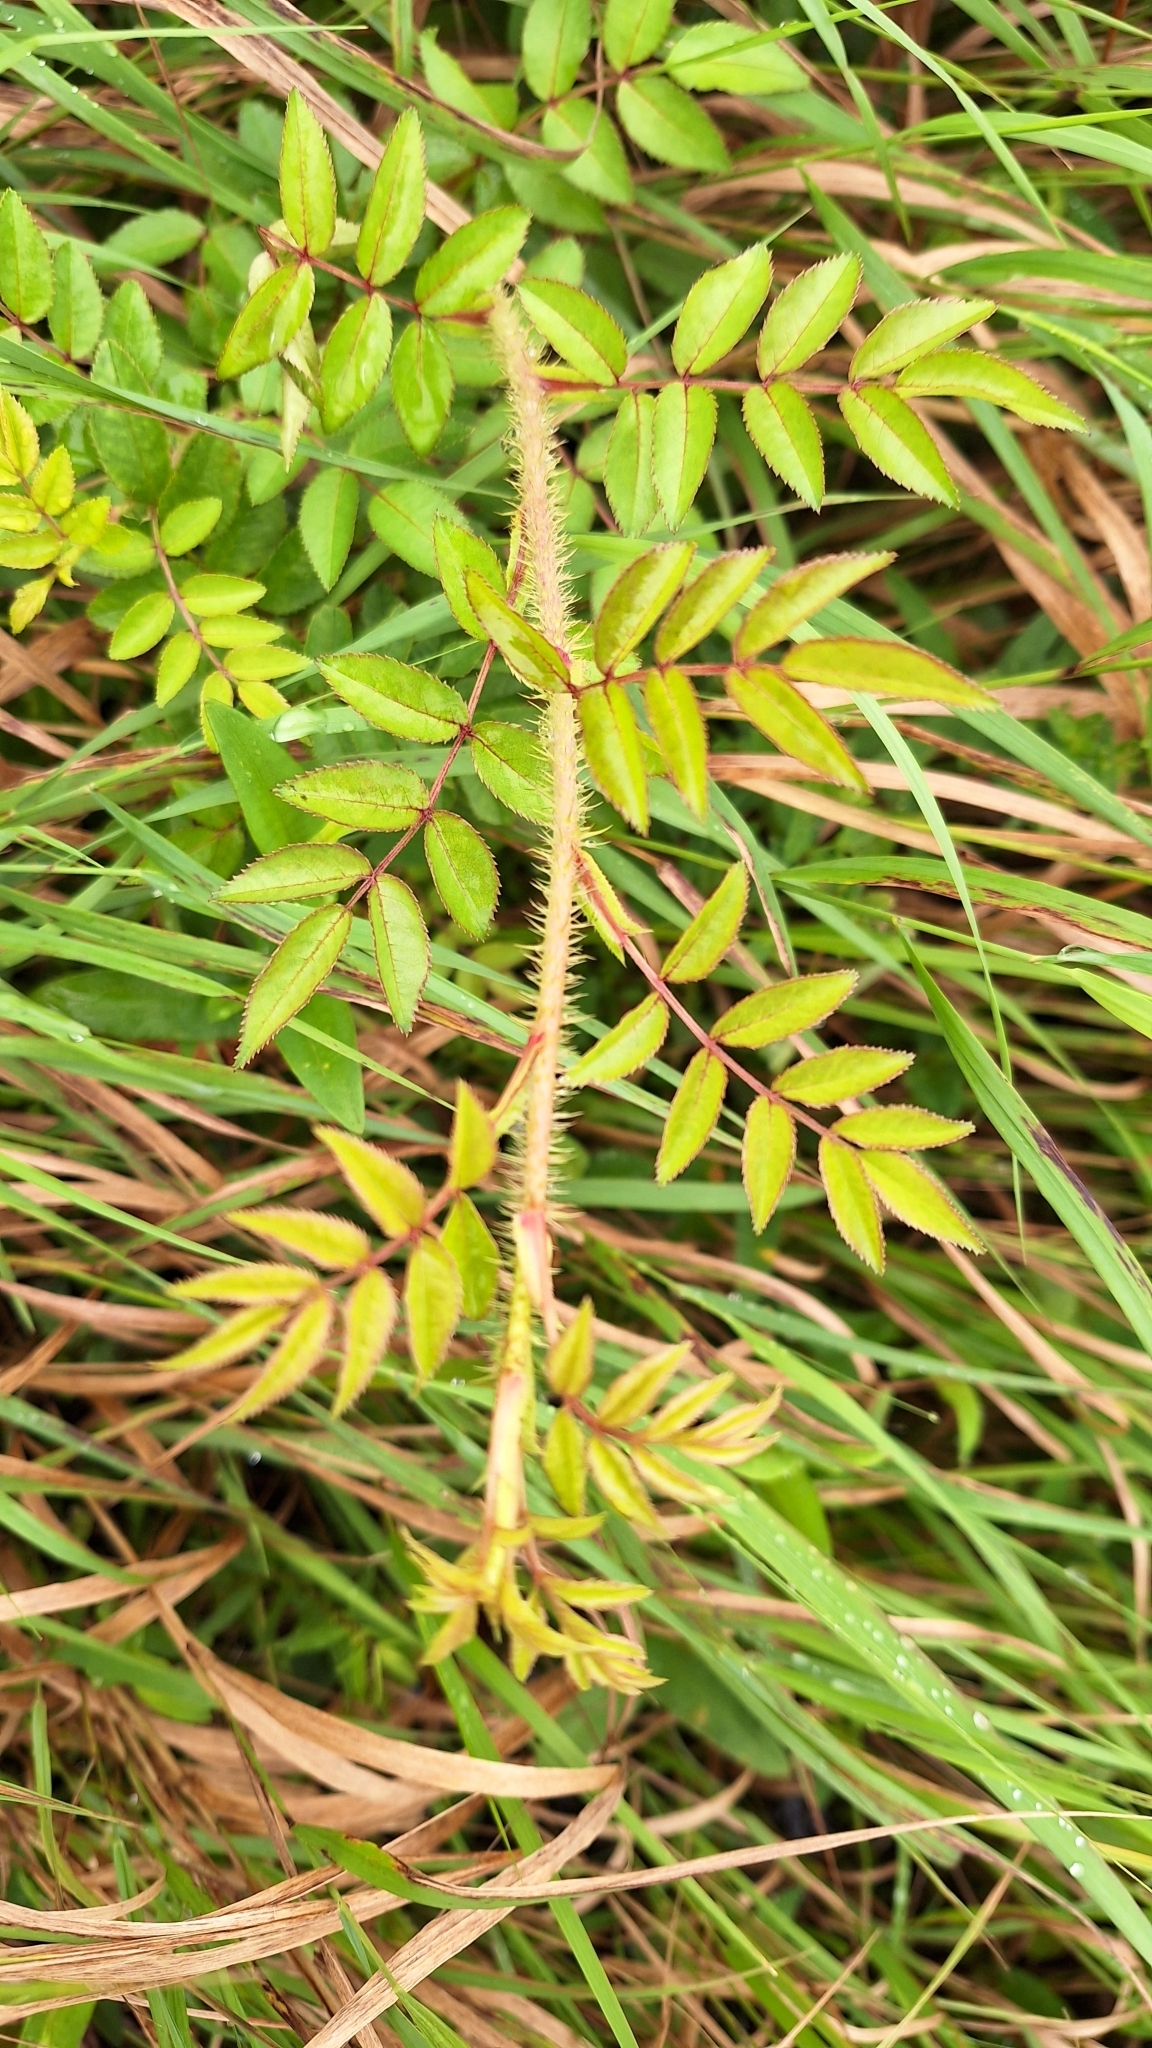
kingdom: Plantae
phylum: Tracheophyta
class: Magnoliopsida
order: Rosales
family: Rosaceae
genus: Rosa
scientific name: Rosa maximowicziana
